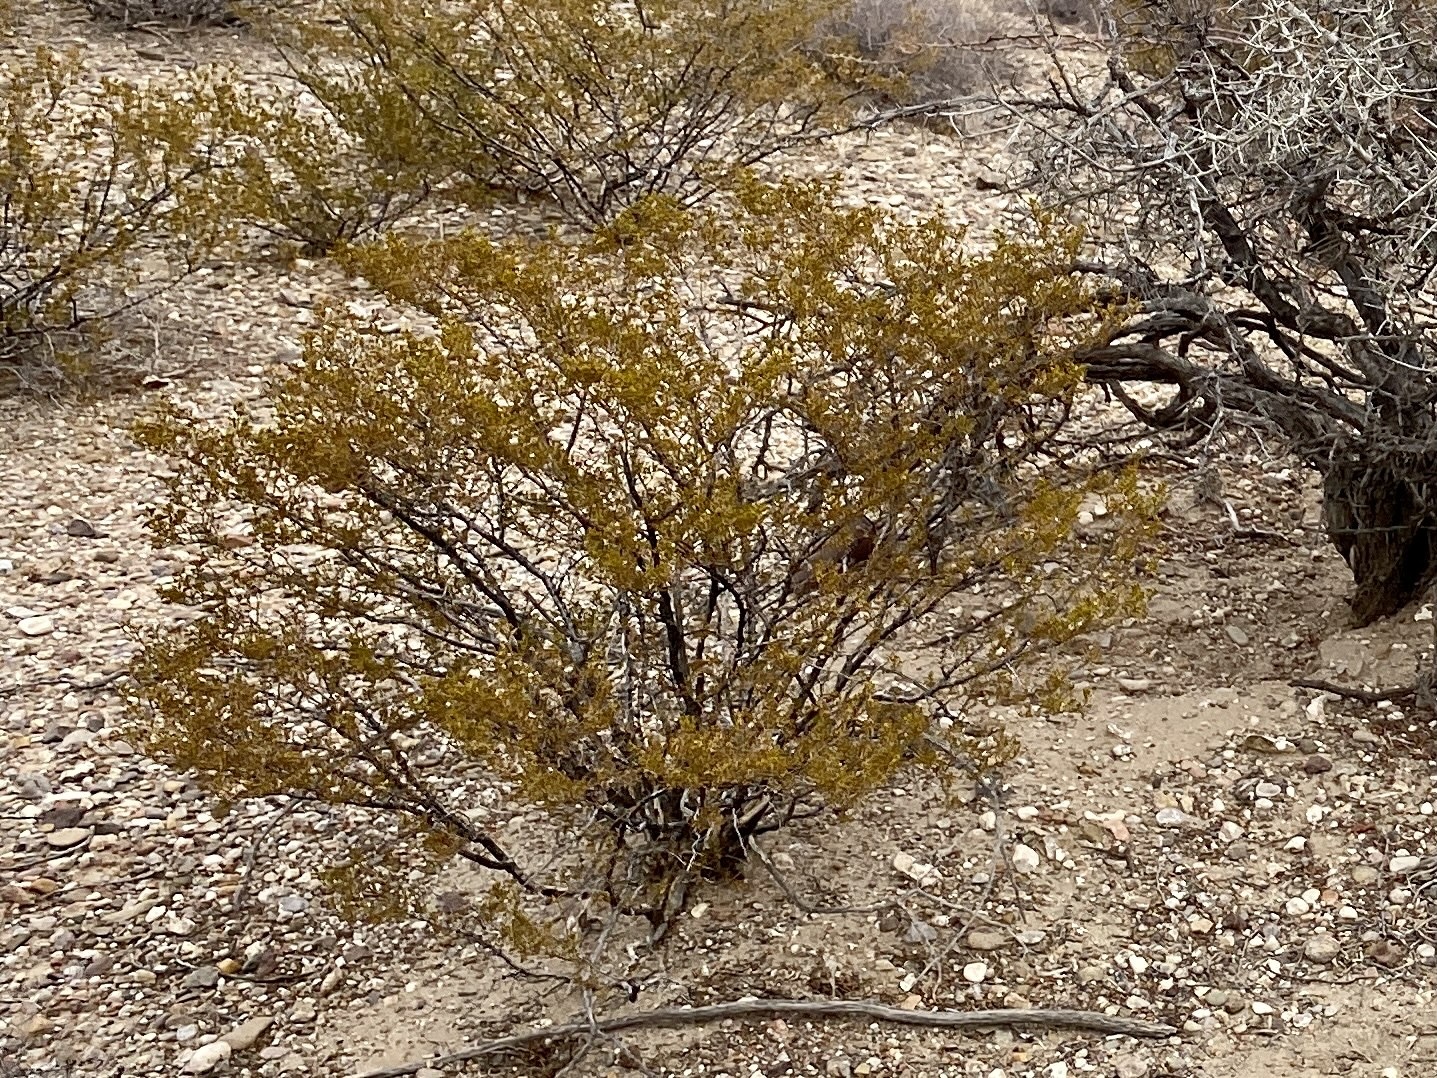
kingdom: Plantae
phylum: Tracheophyta
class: Magnoliopsida
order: Zygophyllales
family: Zygophyllaceae
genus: Larrea
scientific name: Larrea tridentata
